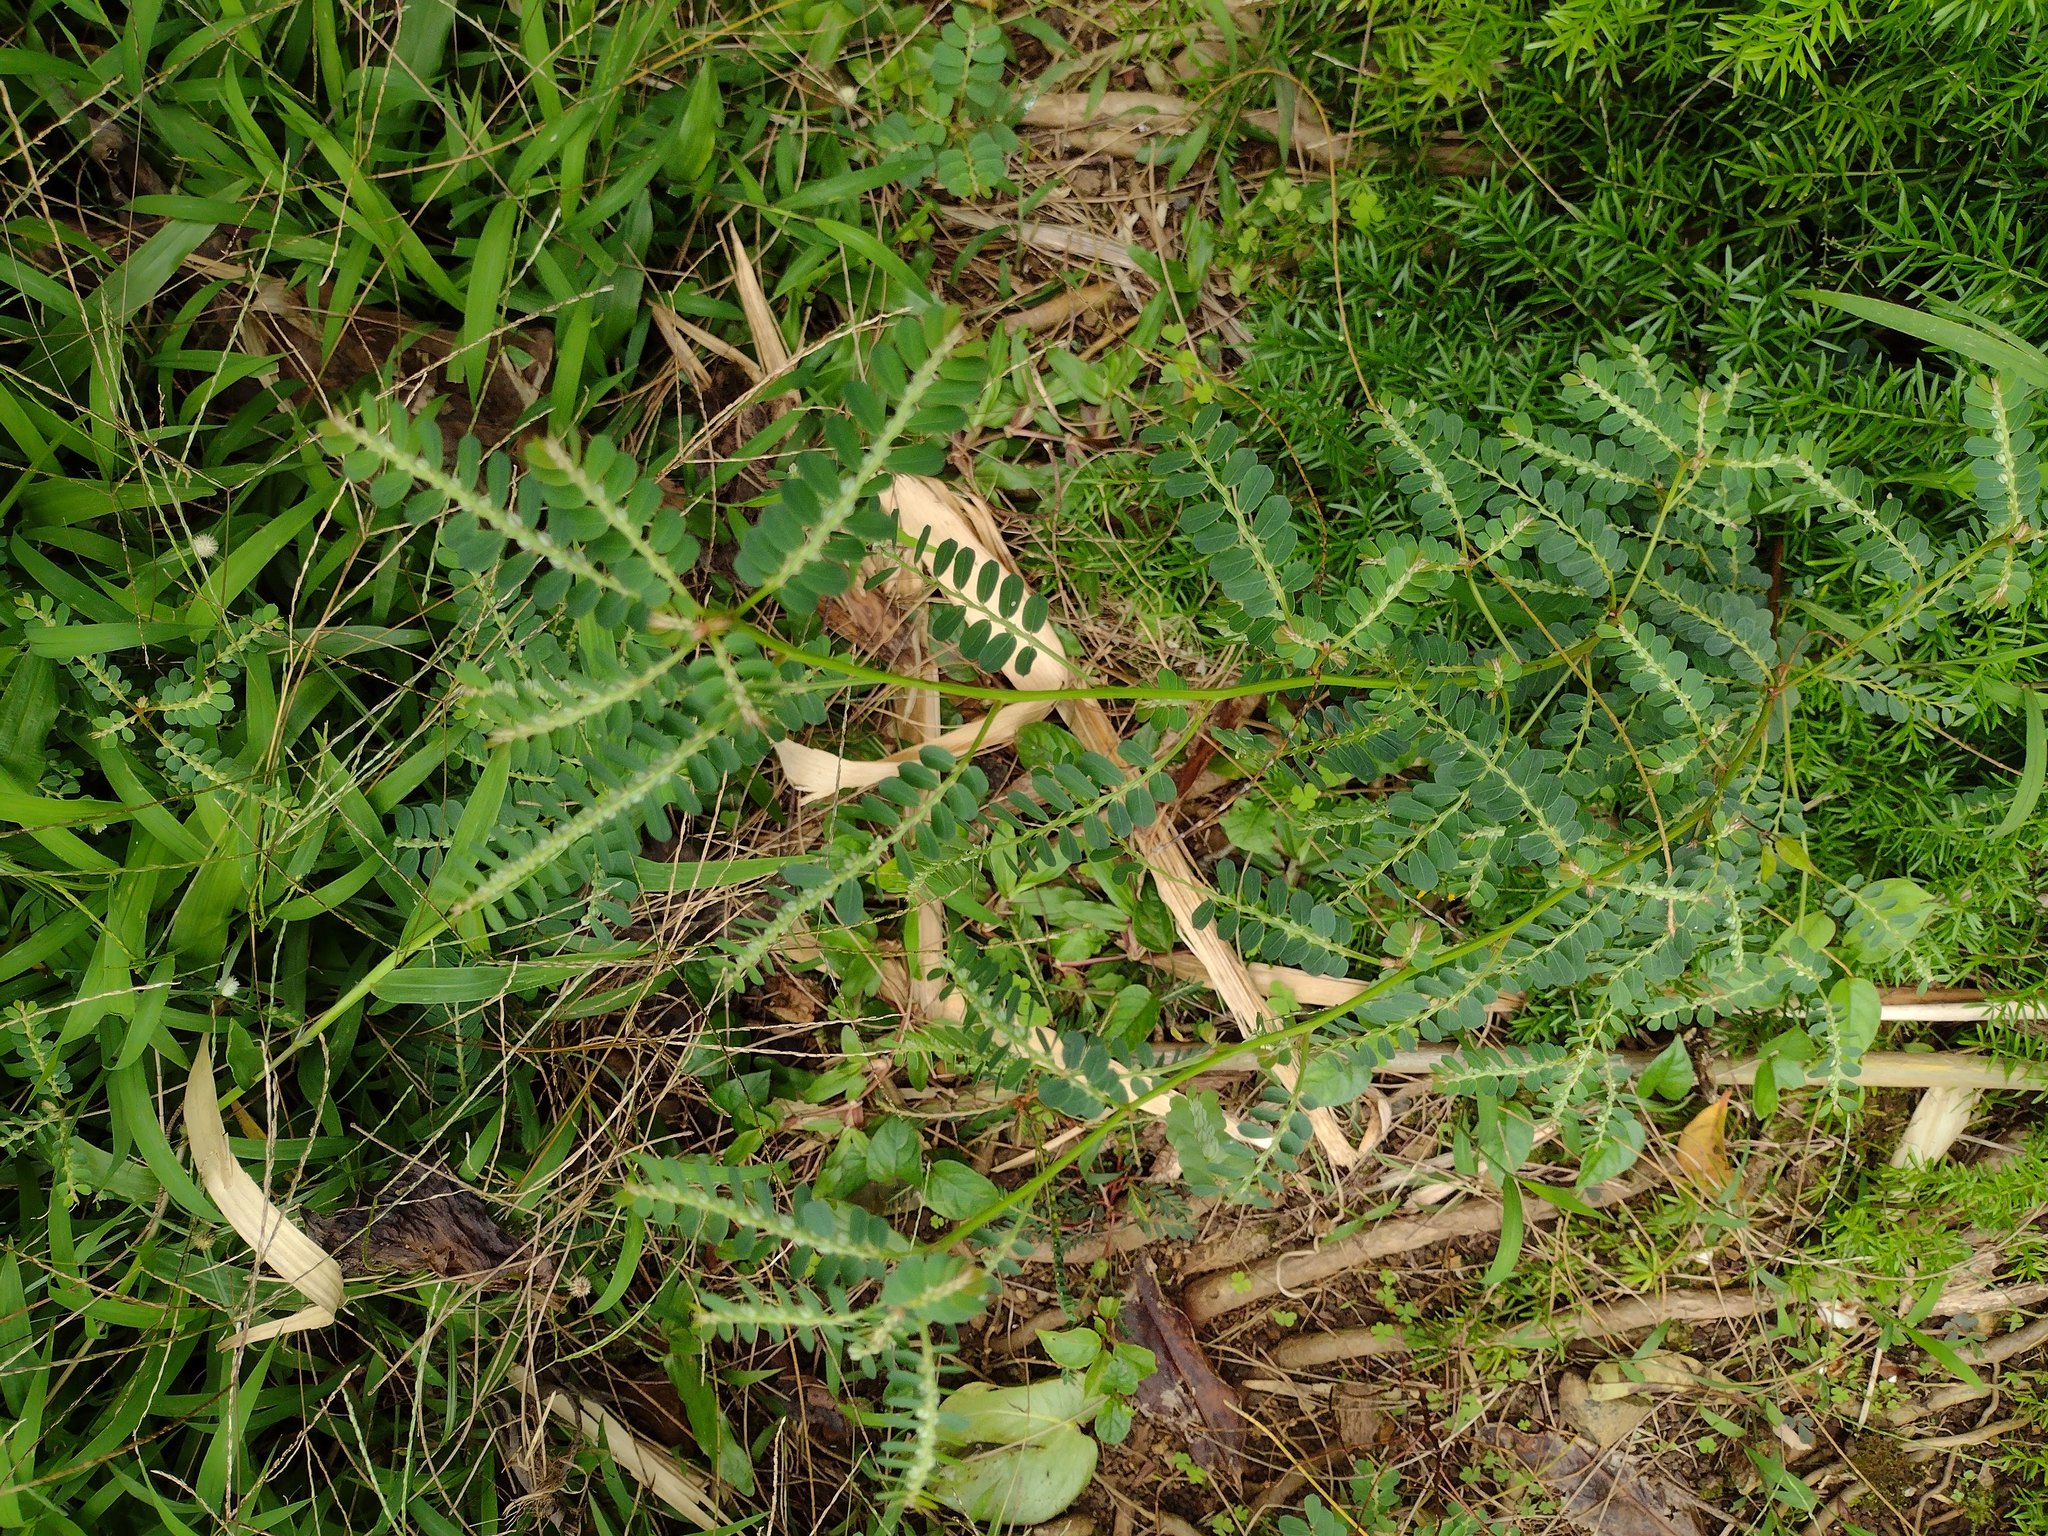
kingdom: Plantae
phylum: Tracheophyta
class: Magnoliopsida
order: Malpighiales
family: Phyllanthaceae
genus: Phyllanthus
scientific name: Phyllanthus leucanthus
